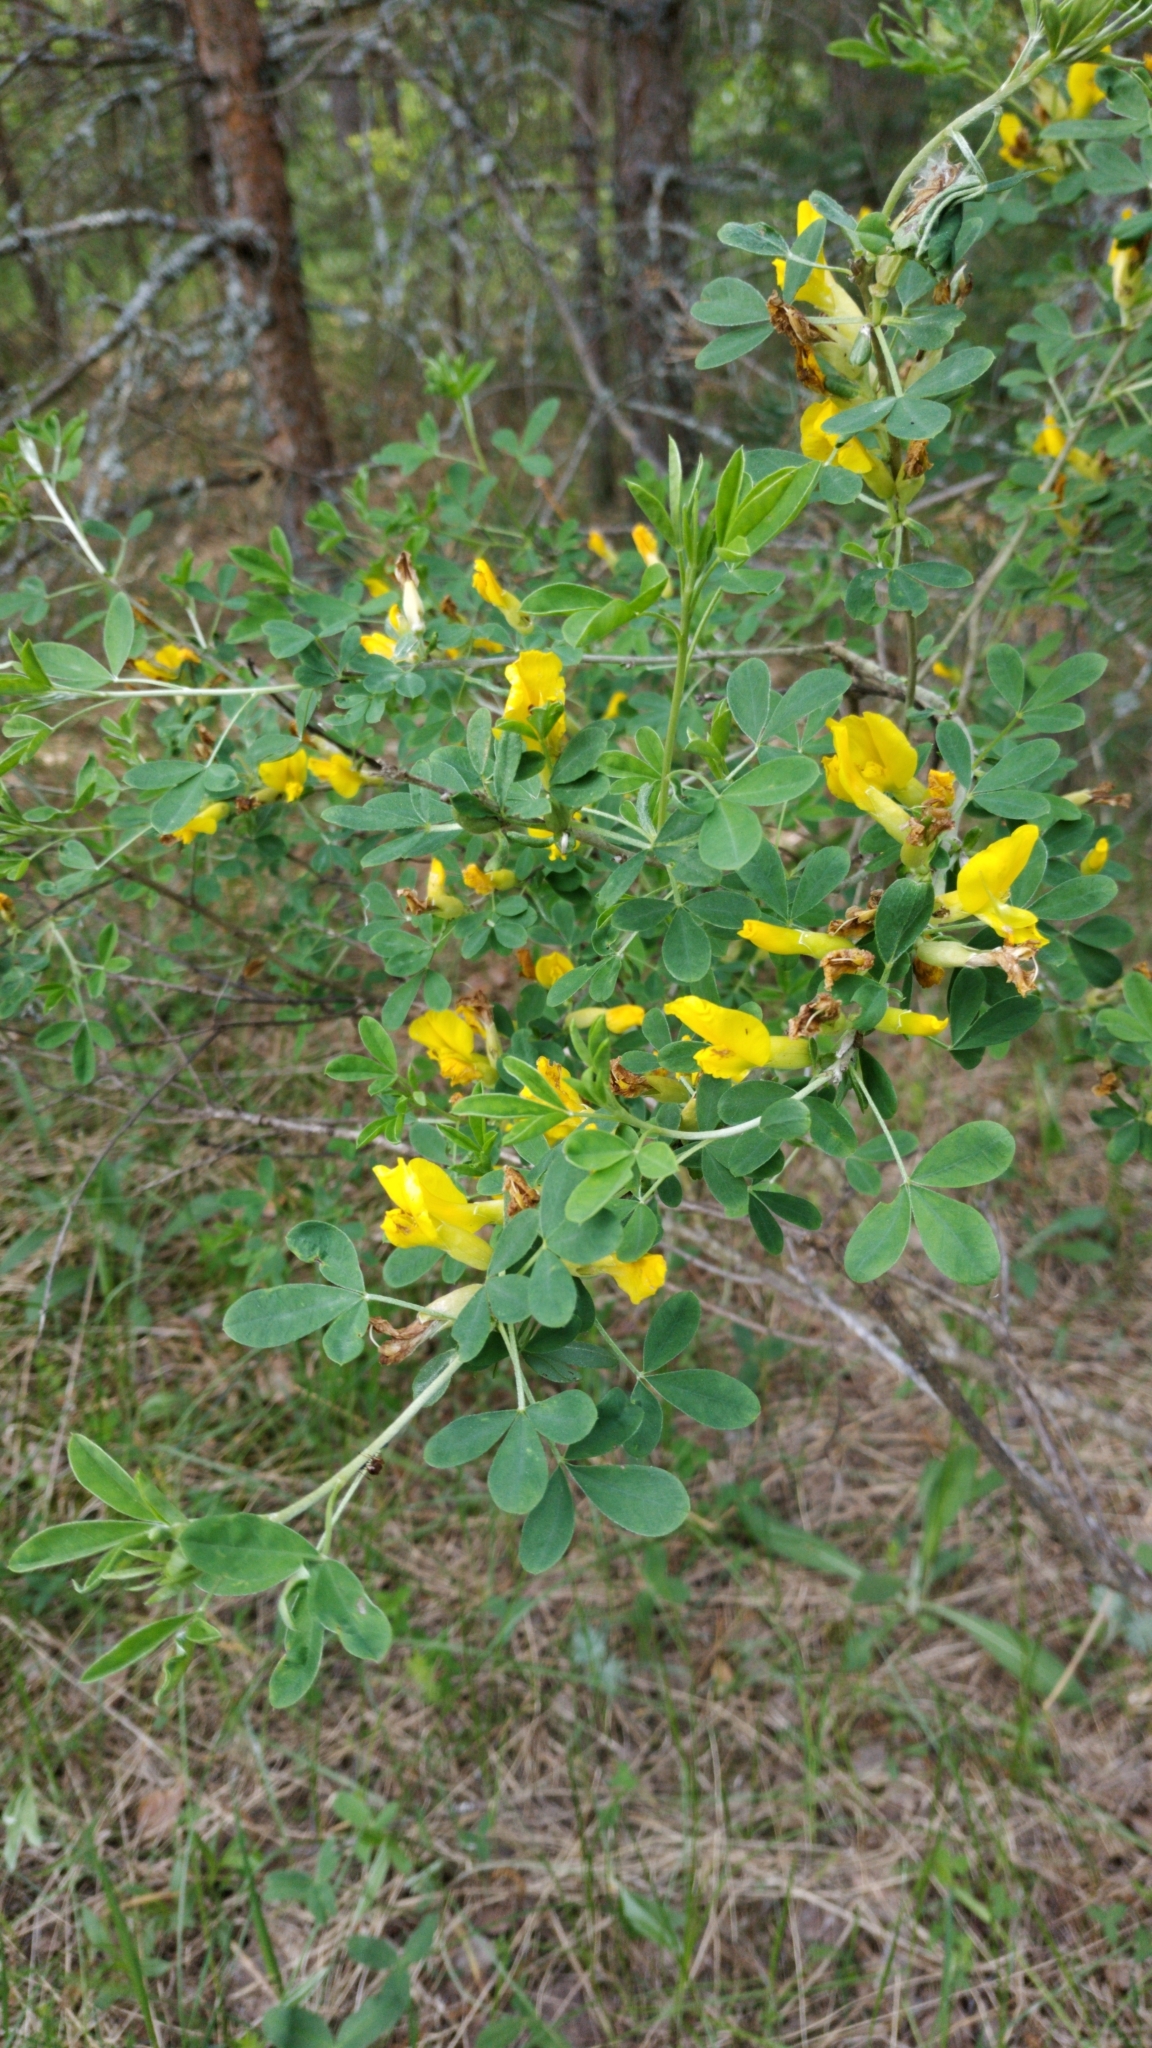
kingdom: Plantae
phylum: Tracheophyta
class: Magnoliopsida
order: Fabales
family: Fabaceae
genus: Chamaecytisus
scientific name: Chamaecytisus ruthenicus
